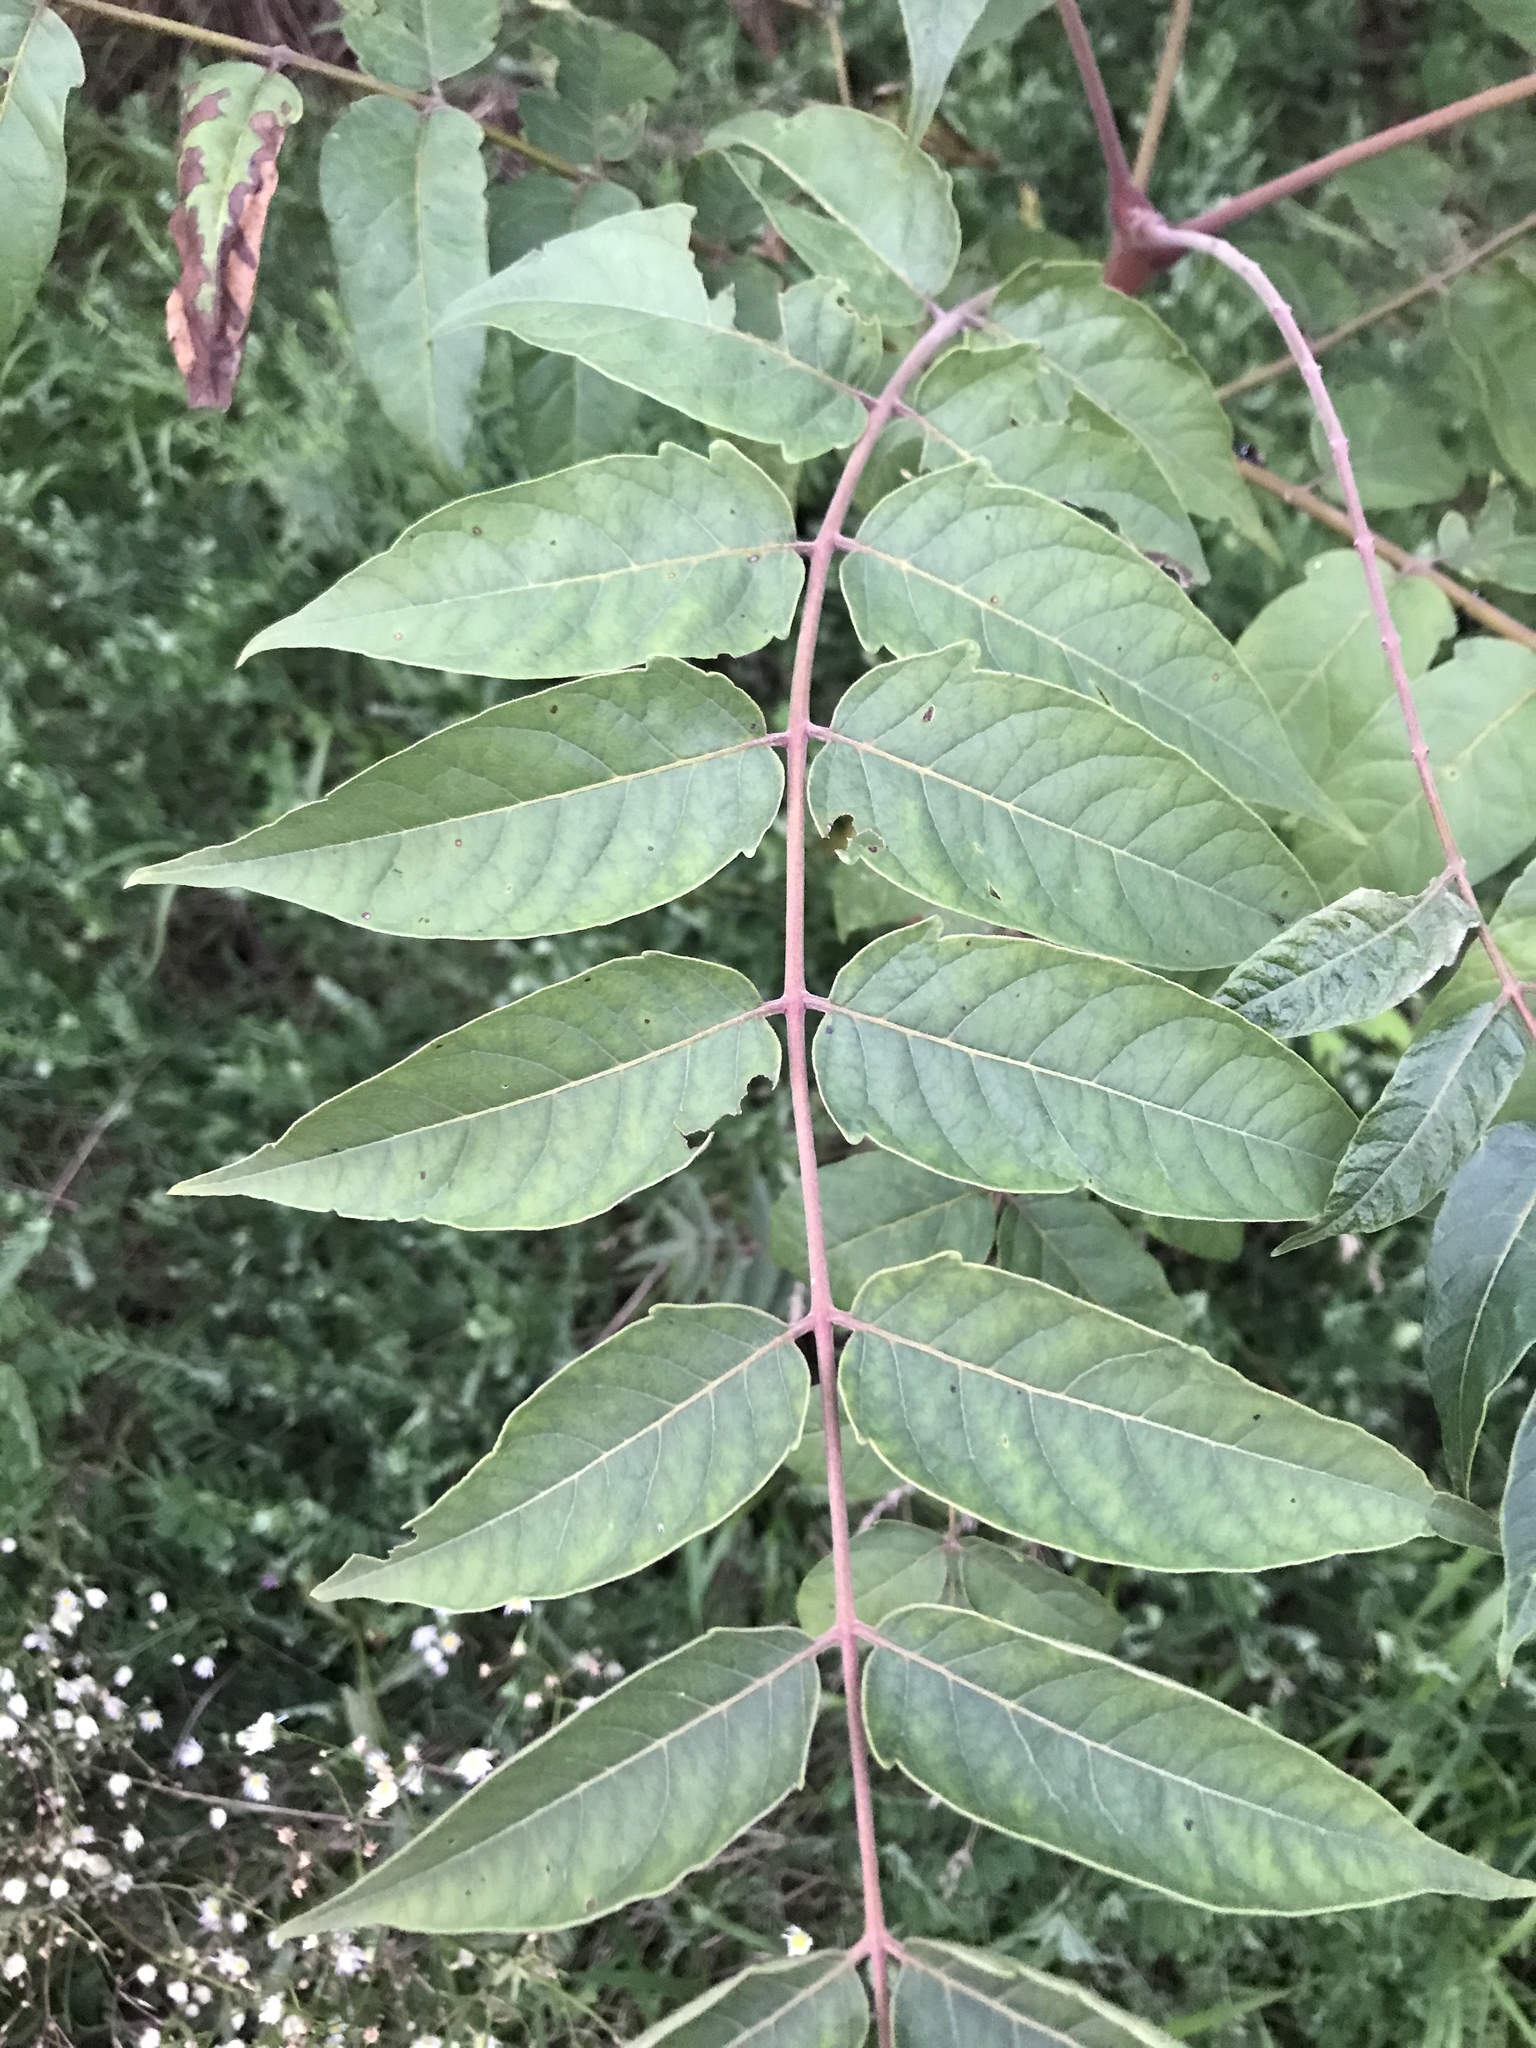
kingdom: Plantae
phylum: Tracheophyta
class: Magnoliopsida
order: Sapindales
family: Simaroubaceae
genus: Ailanthus
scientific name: Ailanthus altissima
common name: Tree-of-heaven
